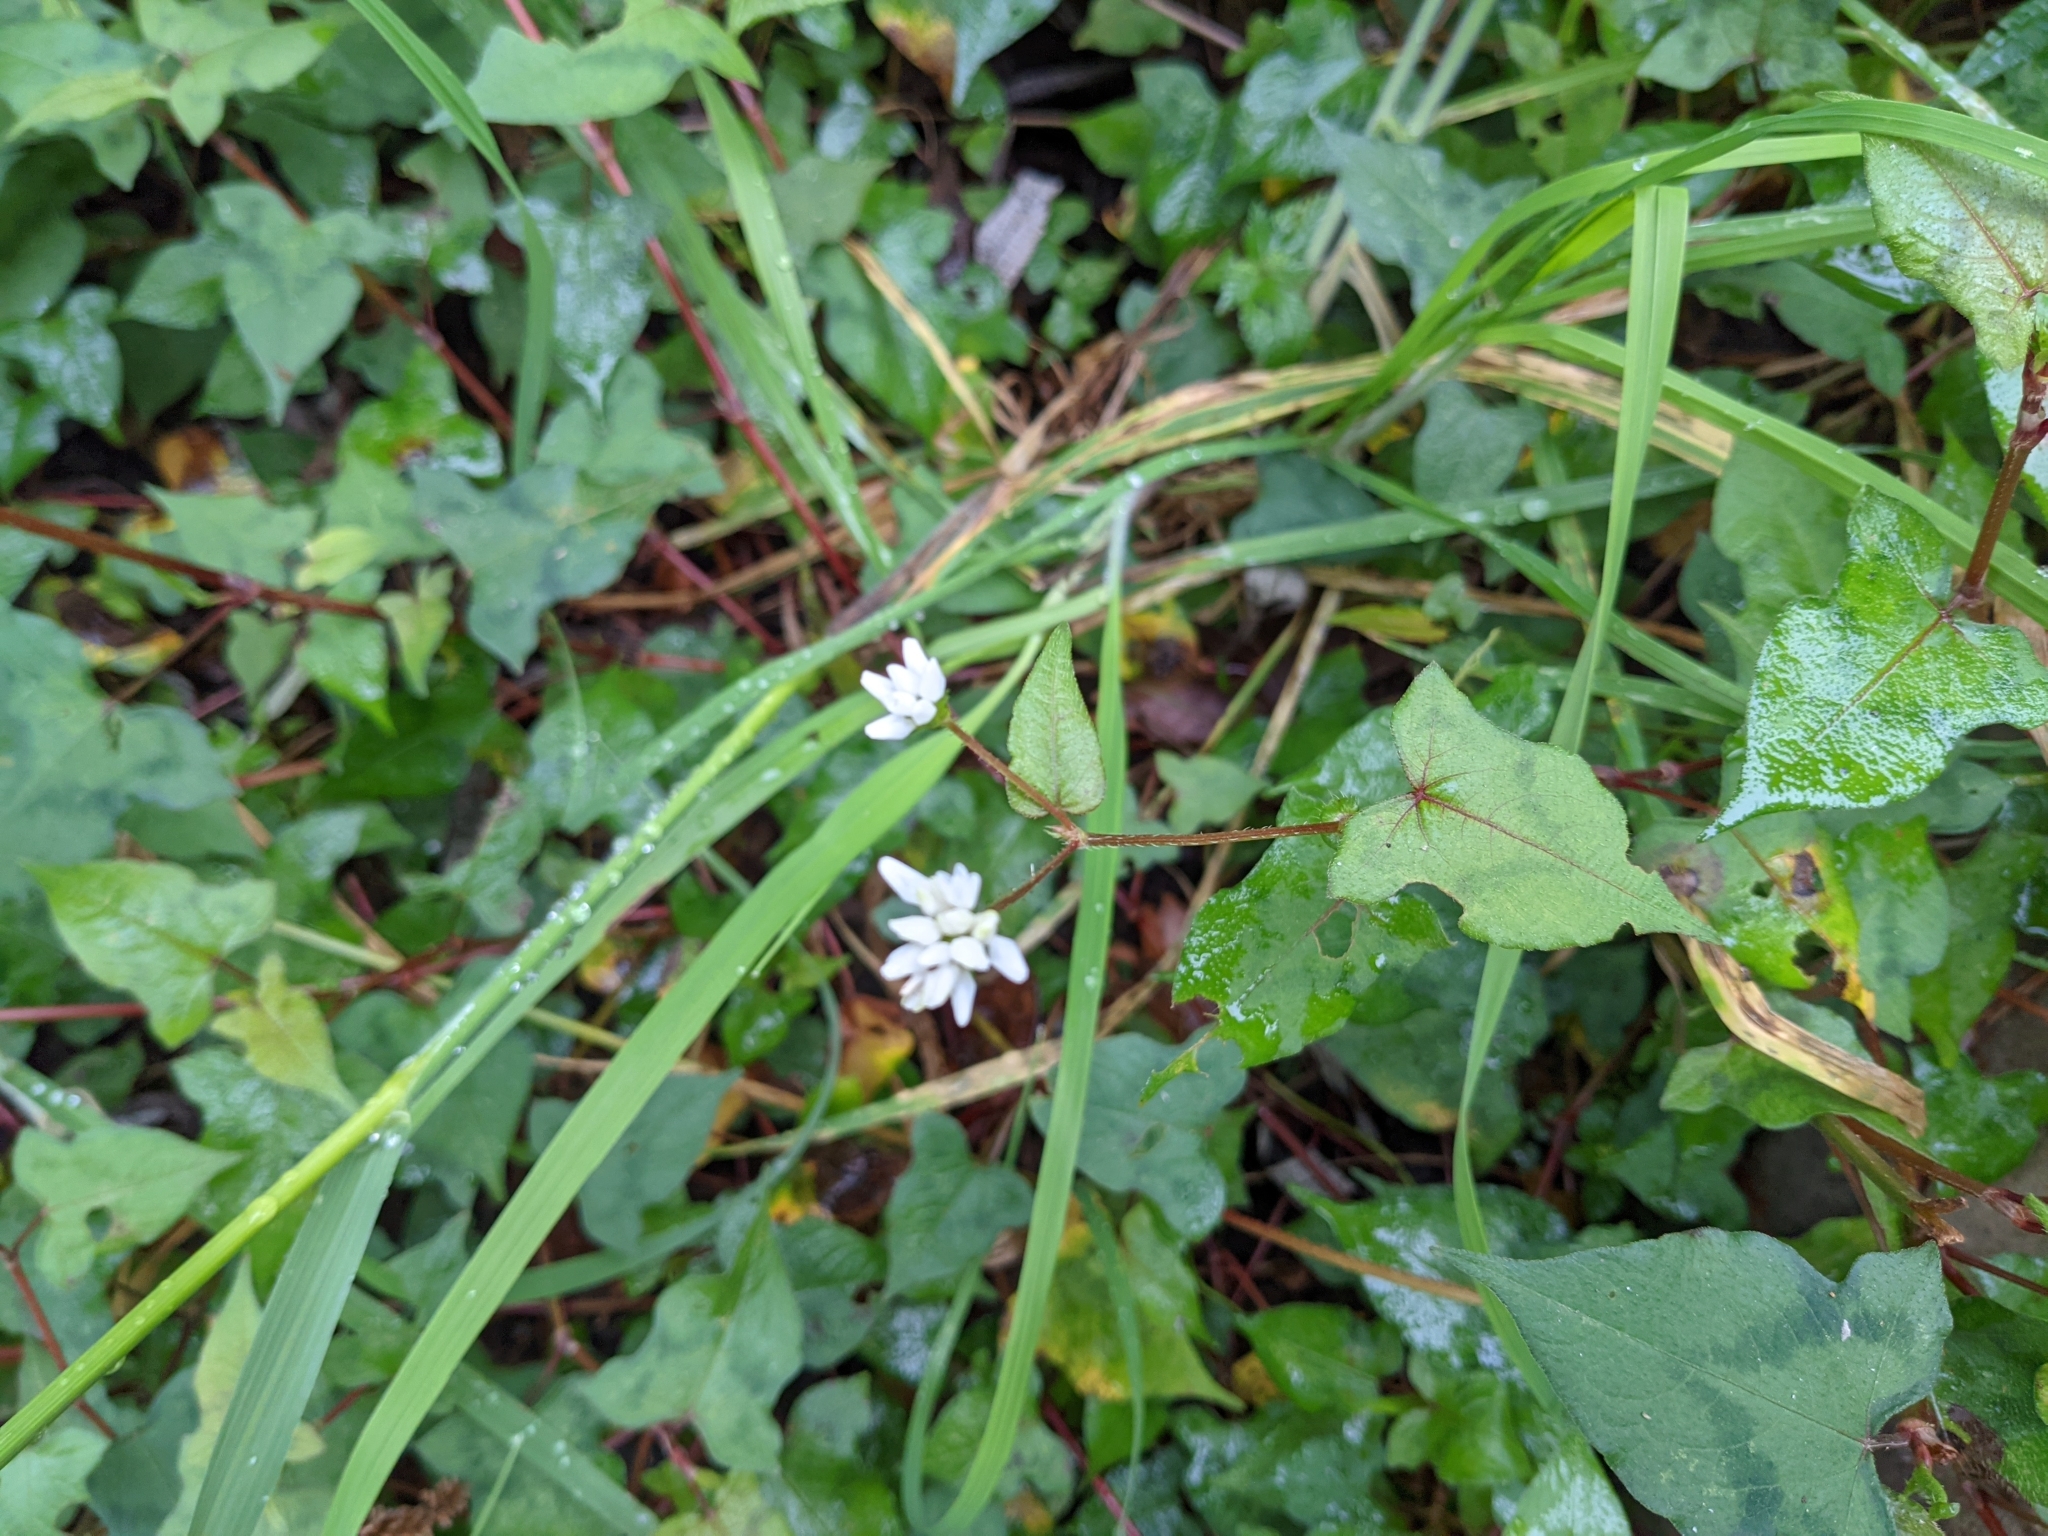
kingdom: Plantae
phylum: Tracheophyta
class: Magnoliopsida
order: Caryophyllales
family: Polygonaceae
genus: Persicaria
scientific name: Persicaria biconvexa
